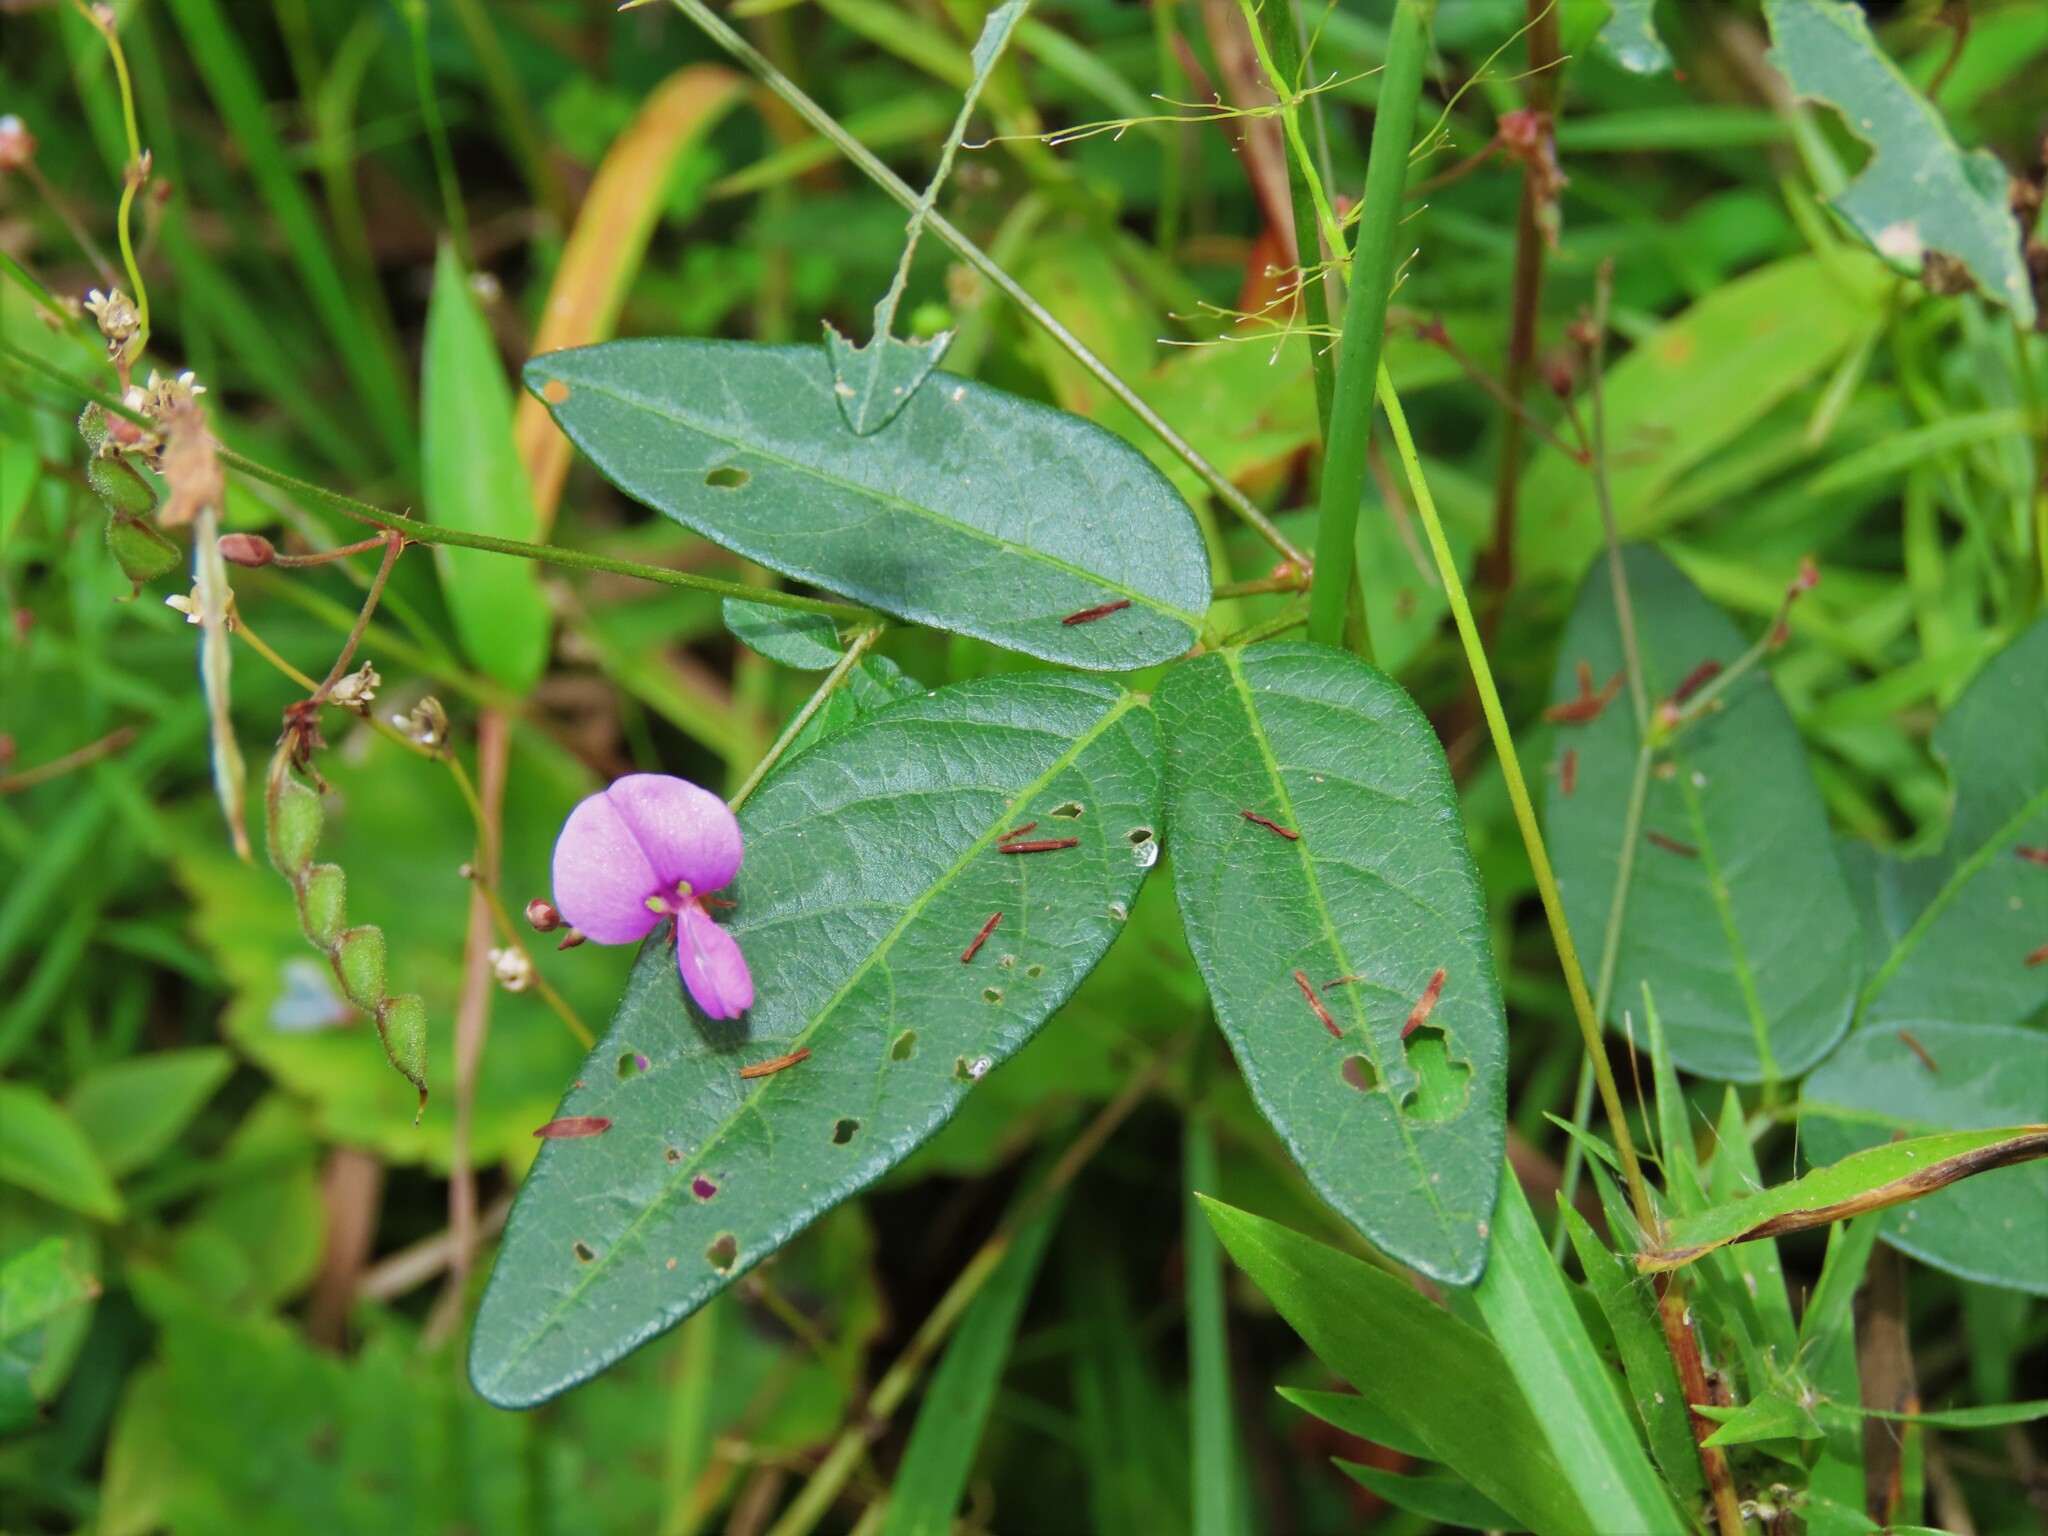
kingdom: Plantae
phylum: Tracheophyta
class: Magnoliopsida
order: Fabales
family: Fabaceae
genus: Desmodium
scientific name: Desmodium paniculatum
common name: Panicled tick-clover
